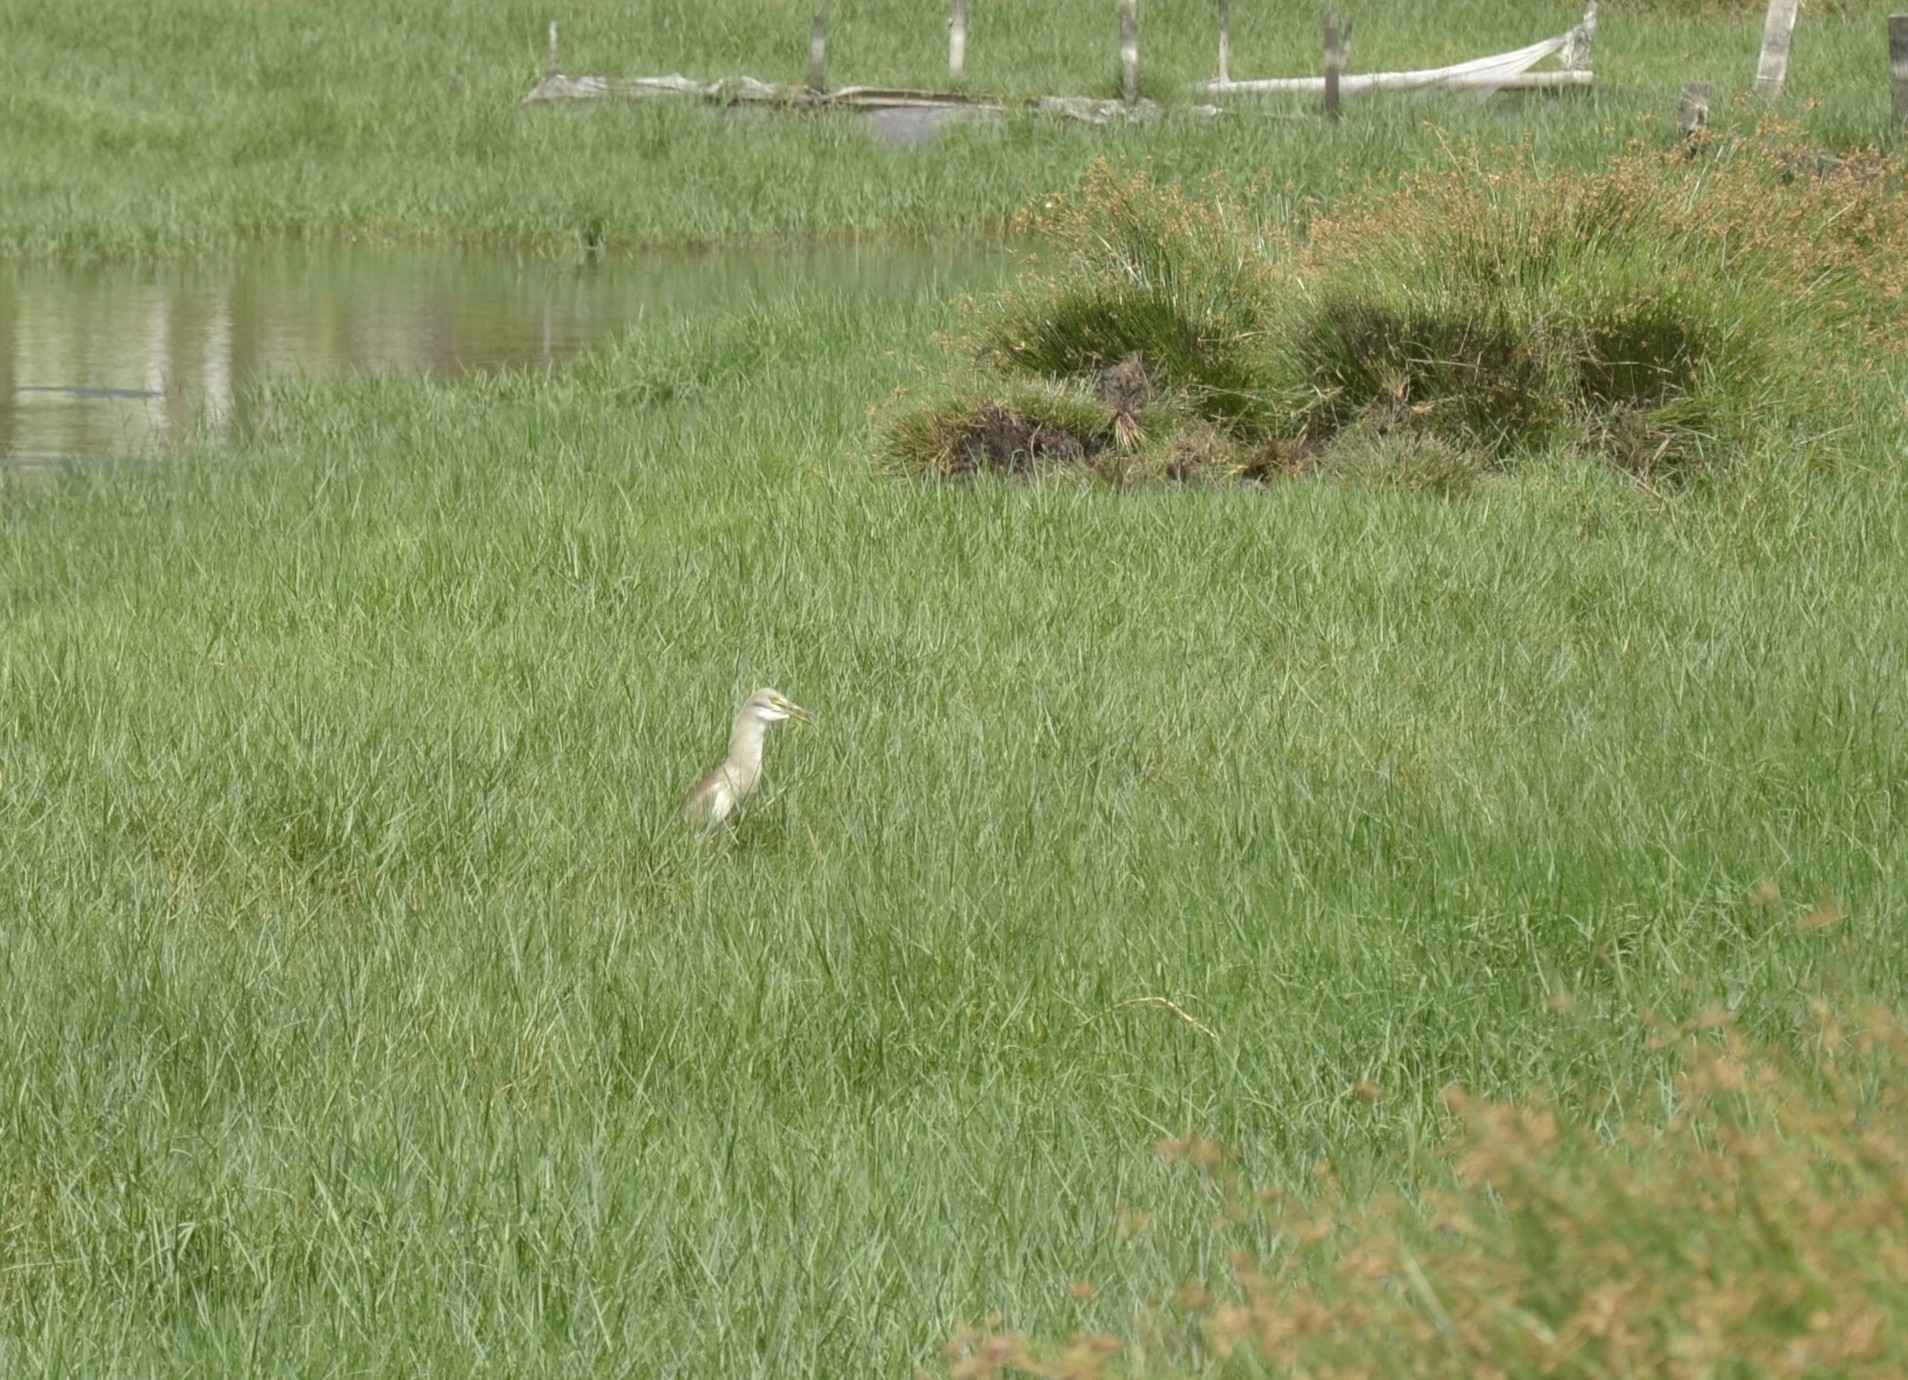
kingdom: Animalia
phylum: Chordata
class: Aves
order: Pelecaniformes
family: Ardeidae
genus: Ardeola
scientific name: Ardeola grayii
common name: Indian pond heron
